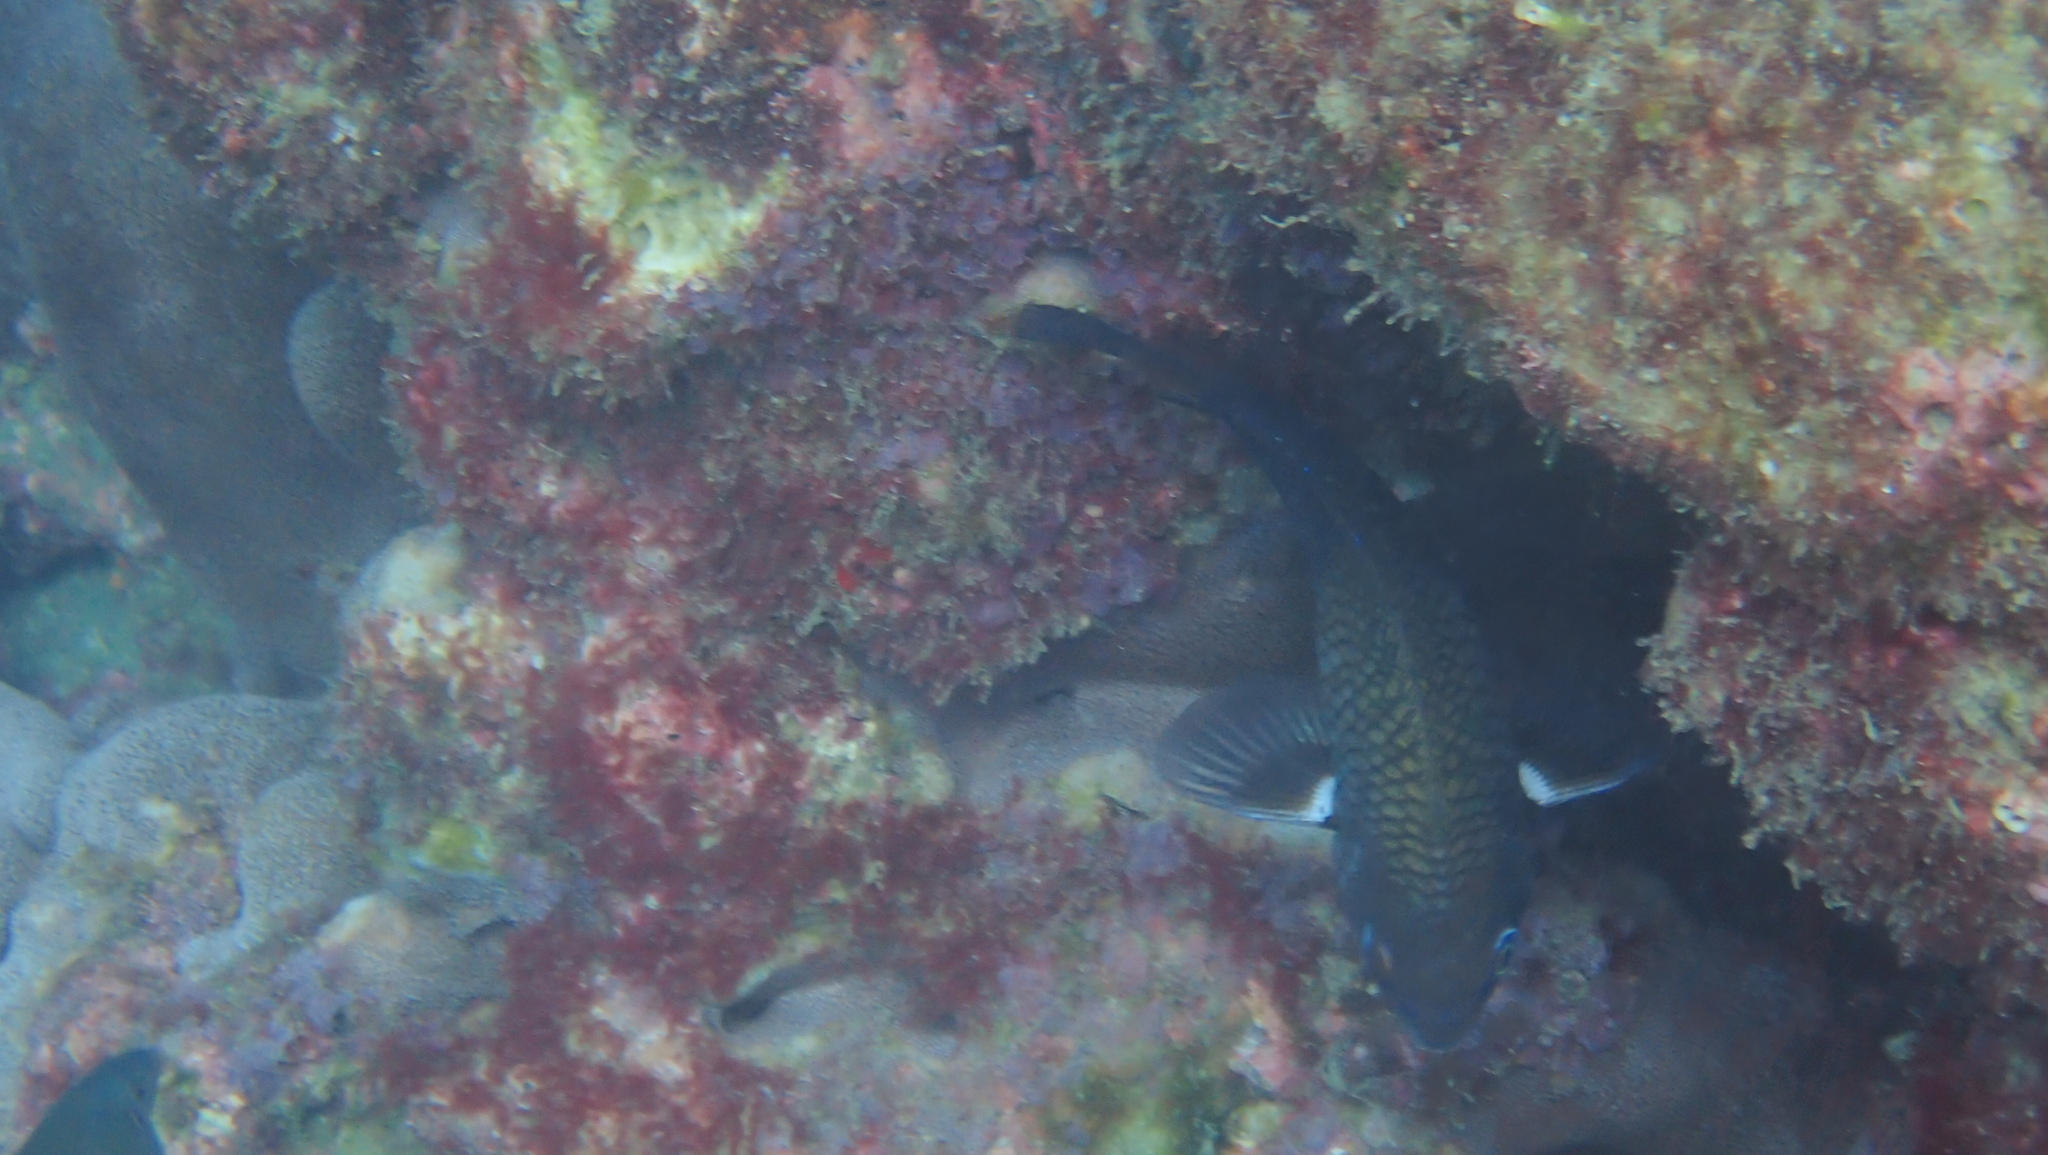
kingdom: Animalia
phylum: Chordata
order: Perciformes
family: Pomacentridae
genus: Stegastes
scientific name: Stegastes acapulcoensis
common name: Acapulco damselfish
